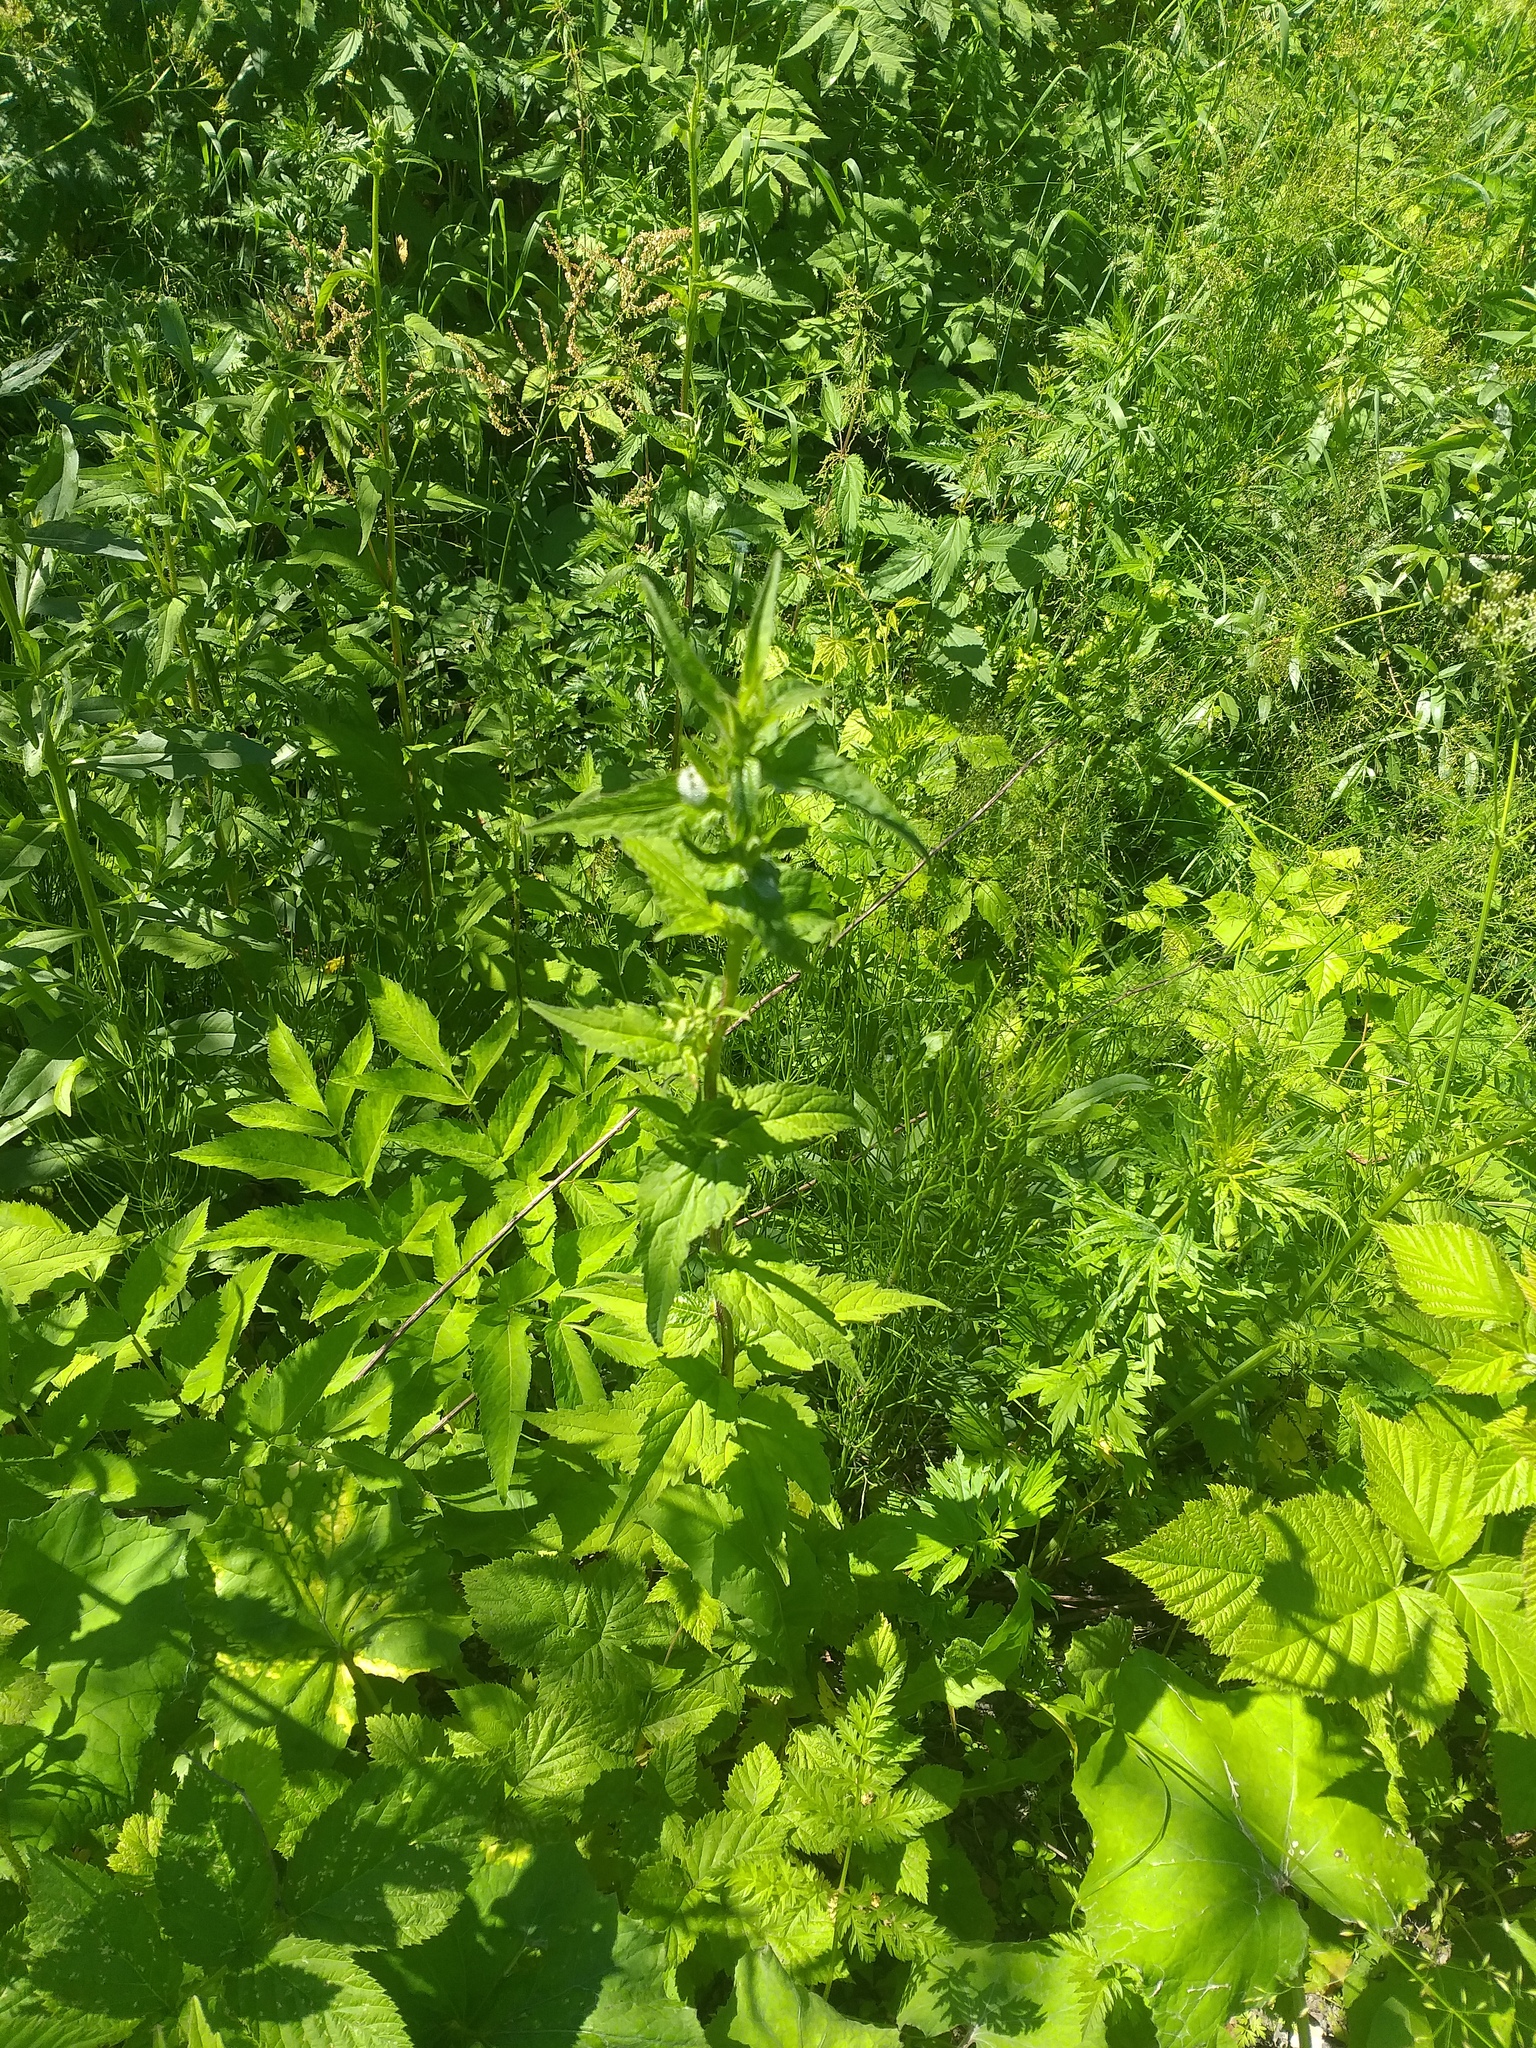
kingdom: Plantae
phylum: Tracheophyta
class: Magnoliopsida
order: Asterales
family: Campanulaceae
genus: Campanula
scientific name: Campanula trachelium
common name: Nettle-leaved bellflower
